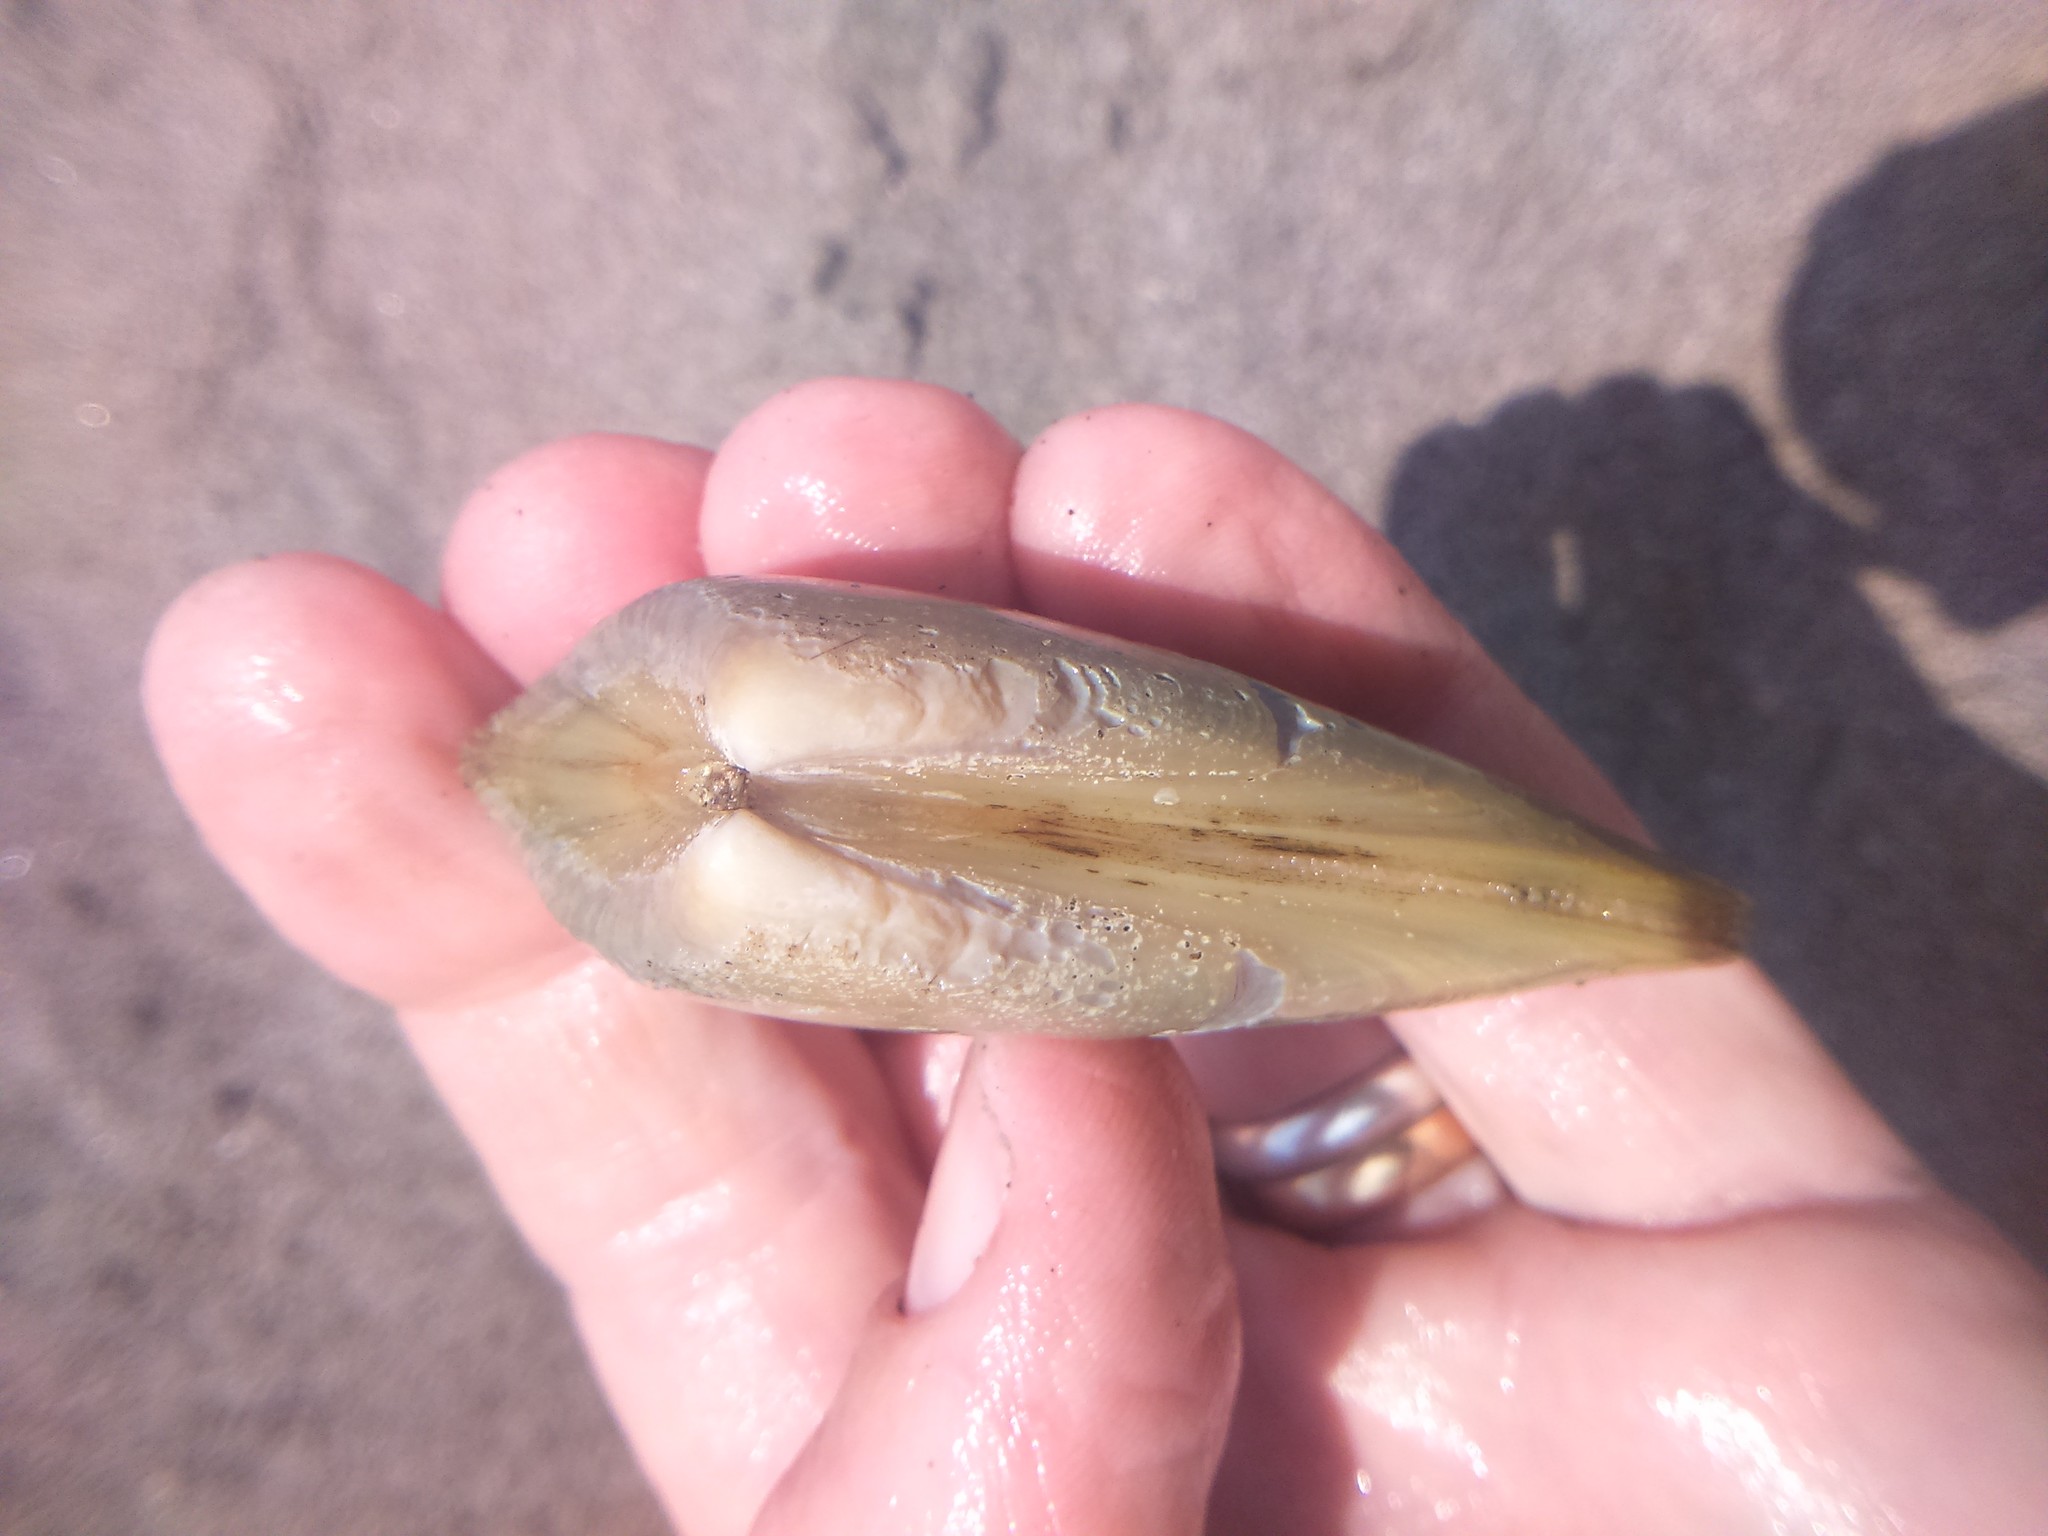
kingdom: Animalia
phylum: Mollusca
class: Bivalvia
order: Venerida
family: Mesodesmatidae
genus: Mesodesma
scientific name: Mesodesma donacium
